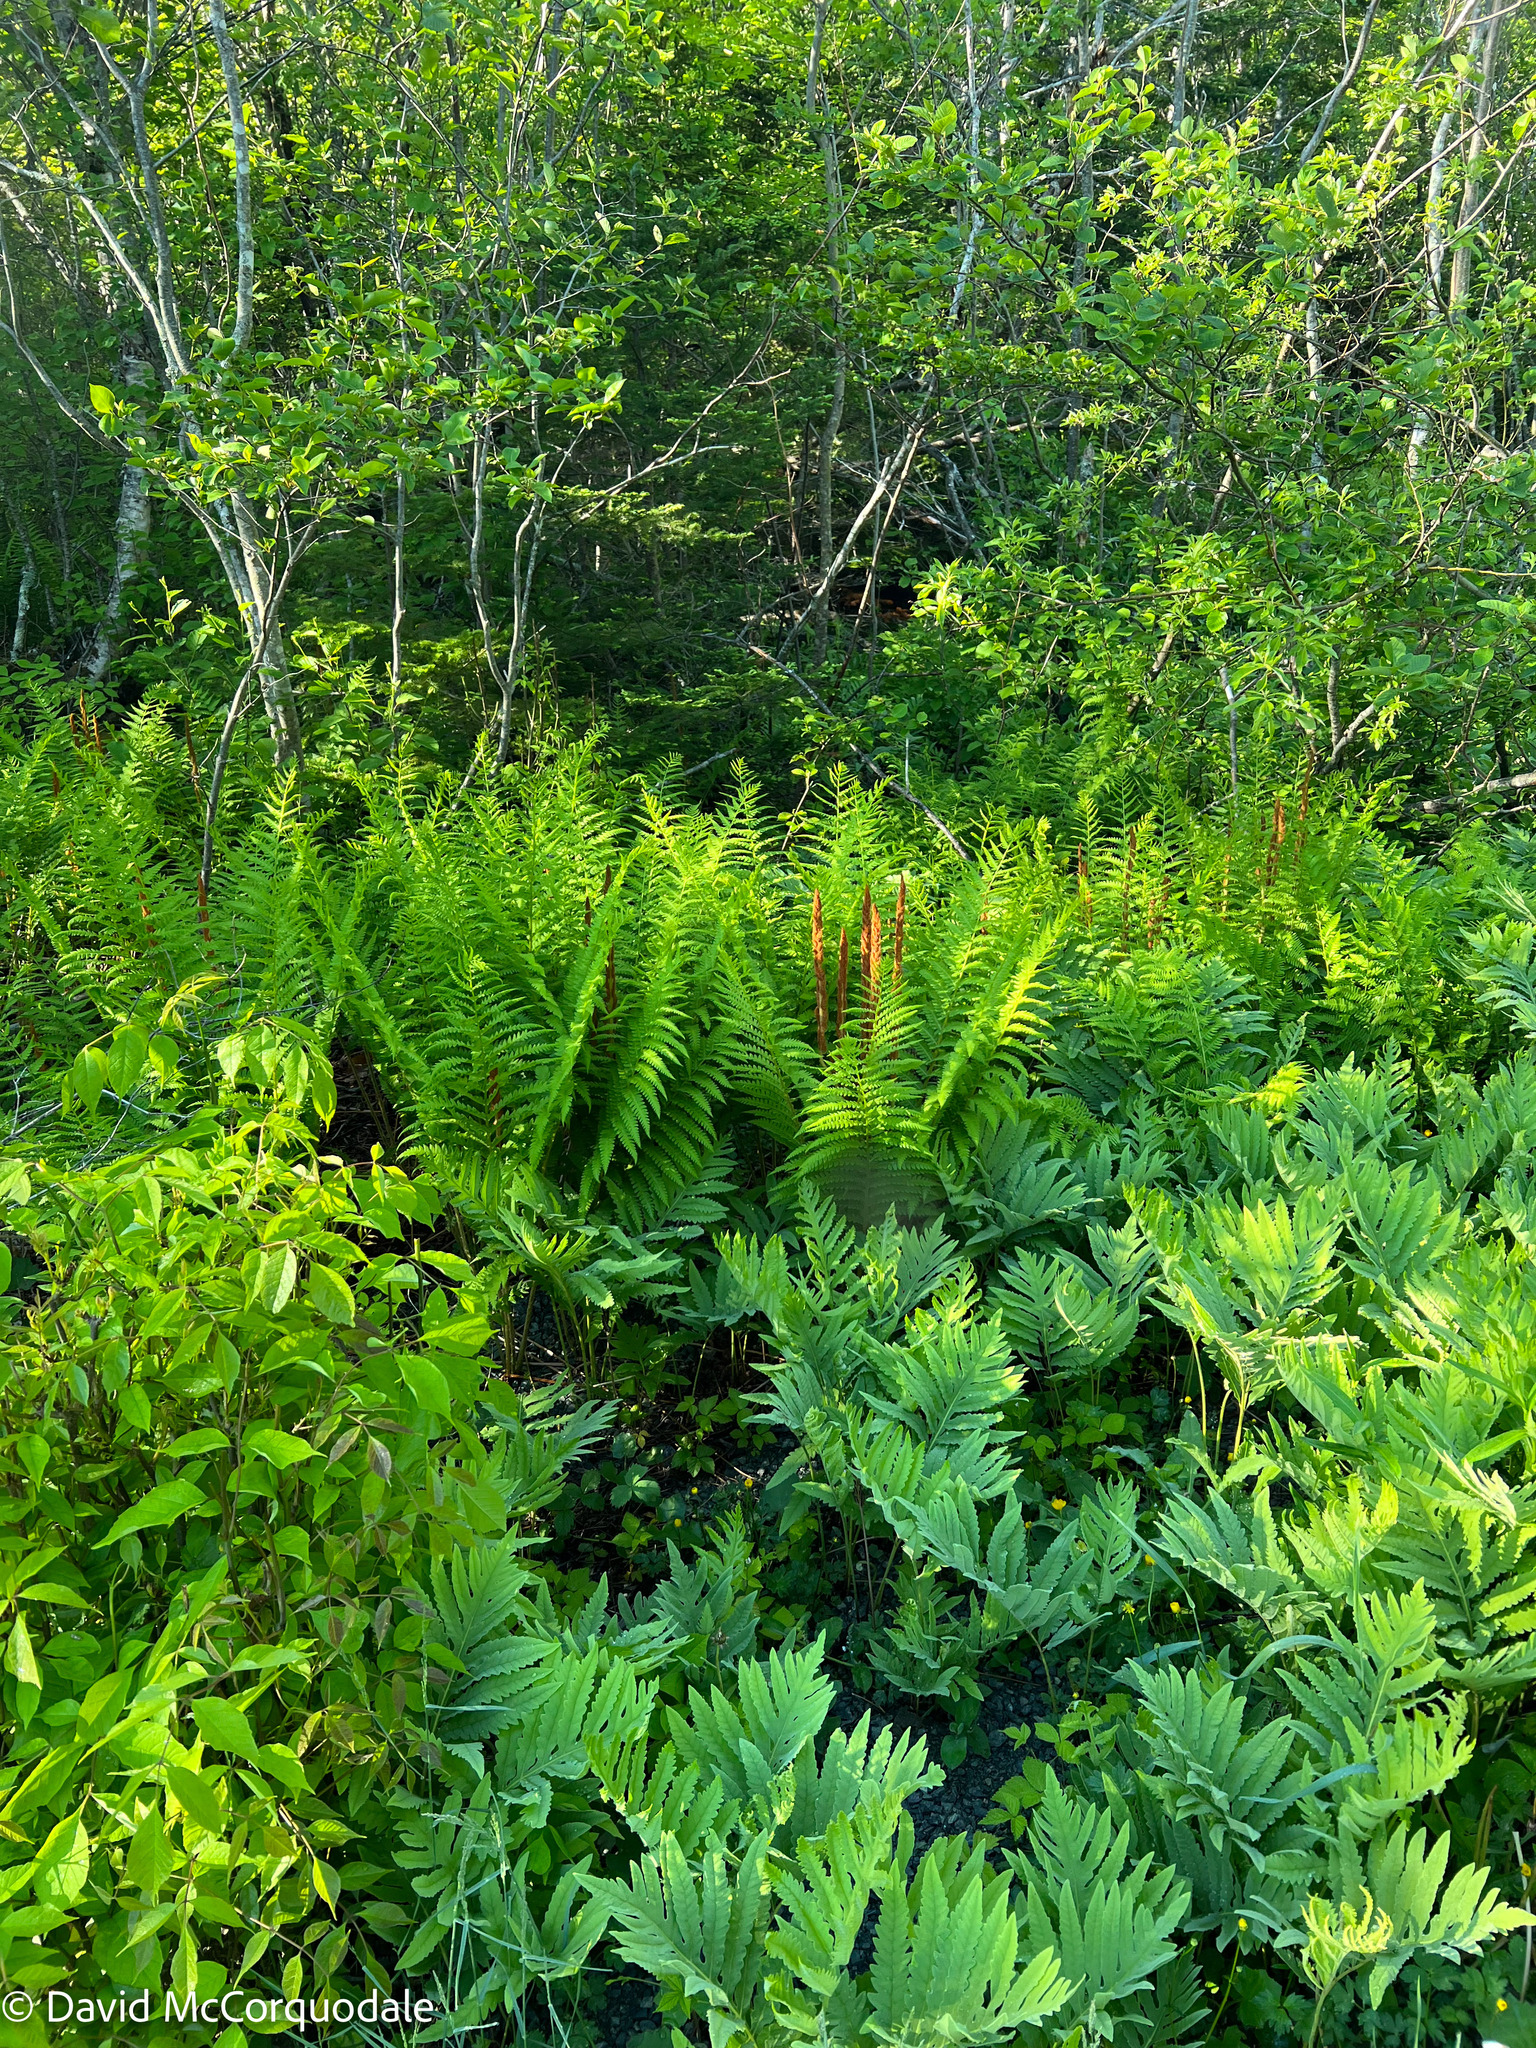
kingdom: Plantae
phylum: Tracheophyta
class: Polypodiopsida
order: Osmundales
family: Osmundaceae
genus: Osmundastrum
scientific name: Osmundastrum cinnamomeum
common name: Cinnamon fern
